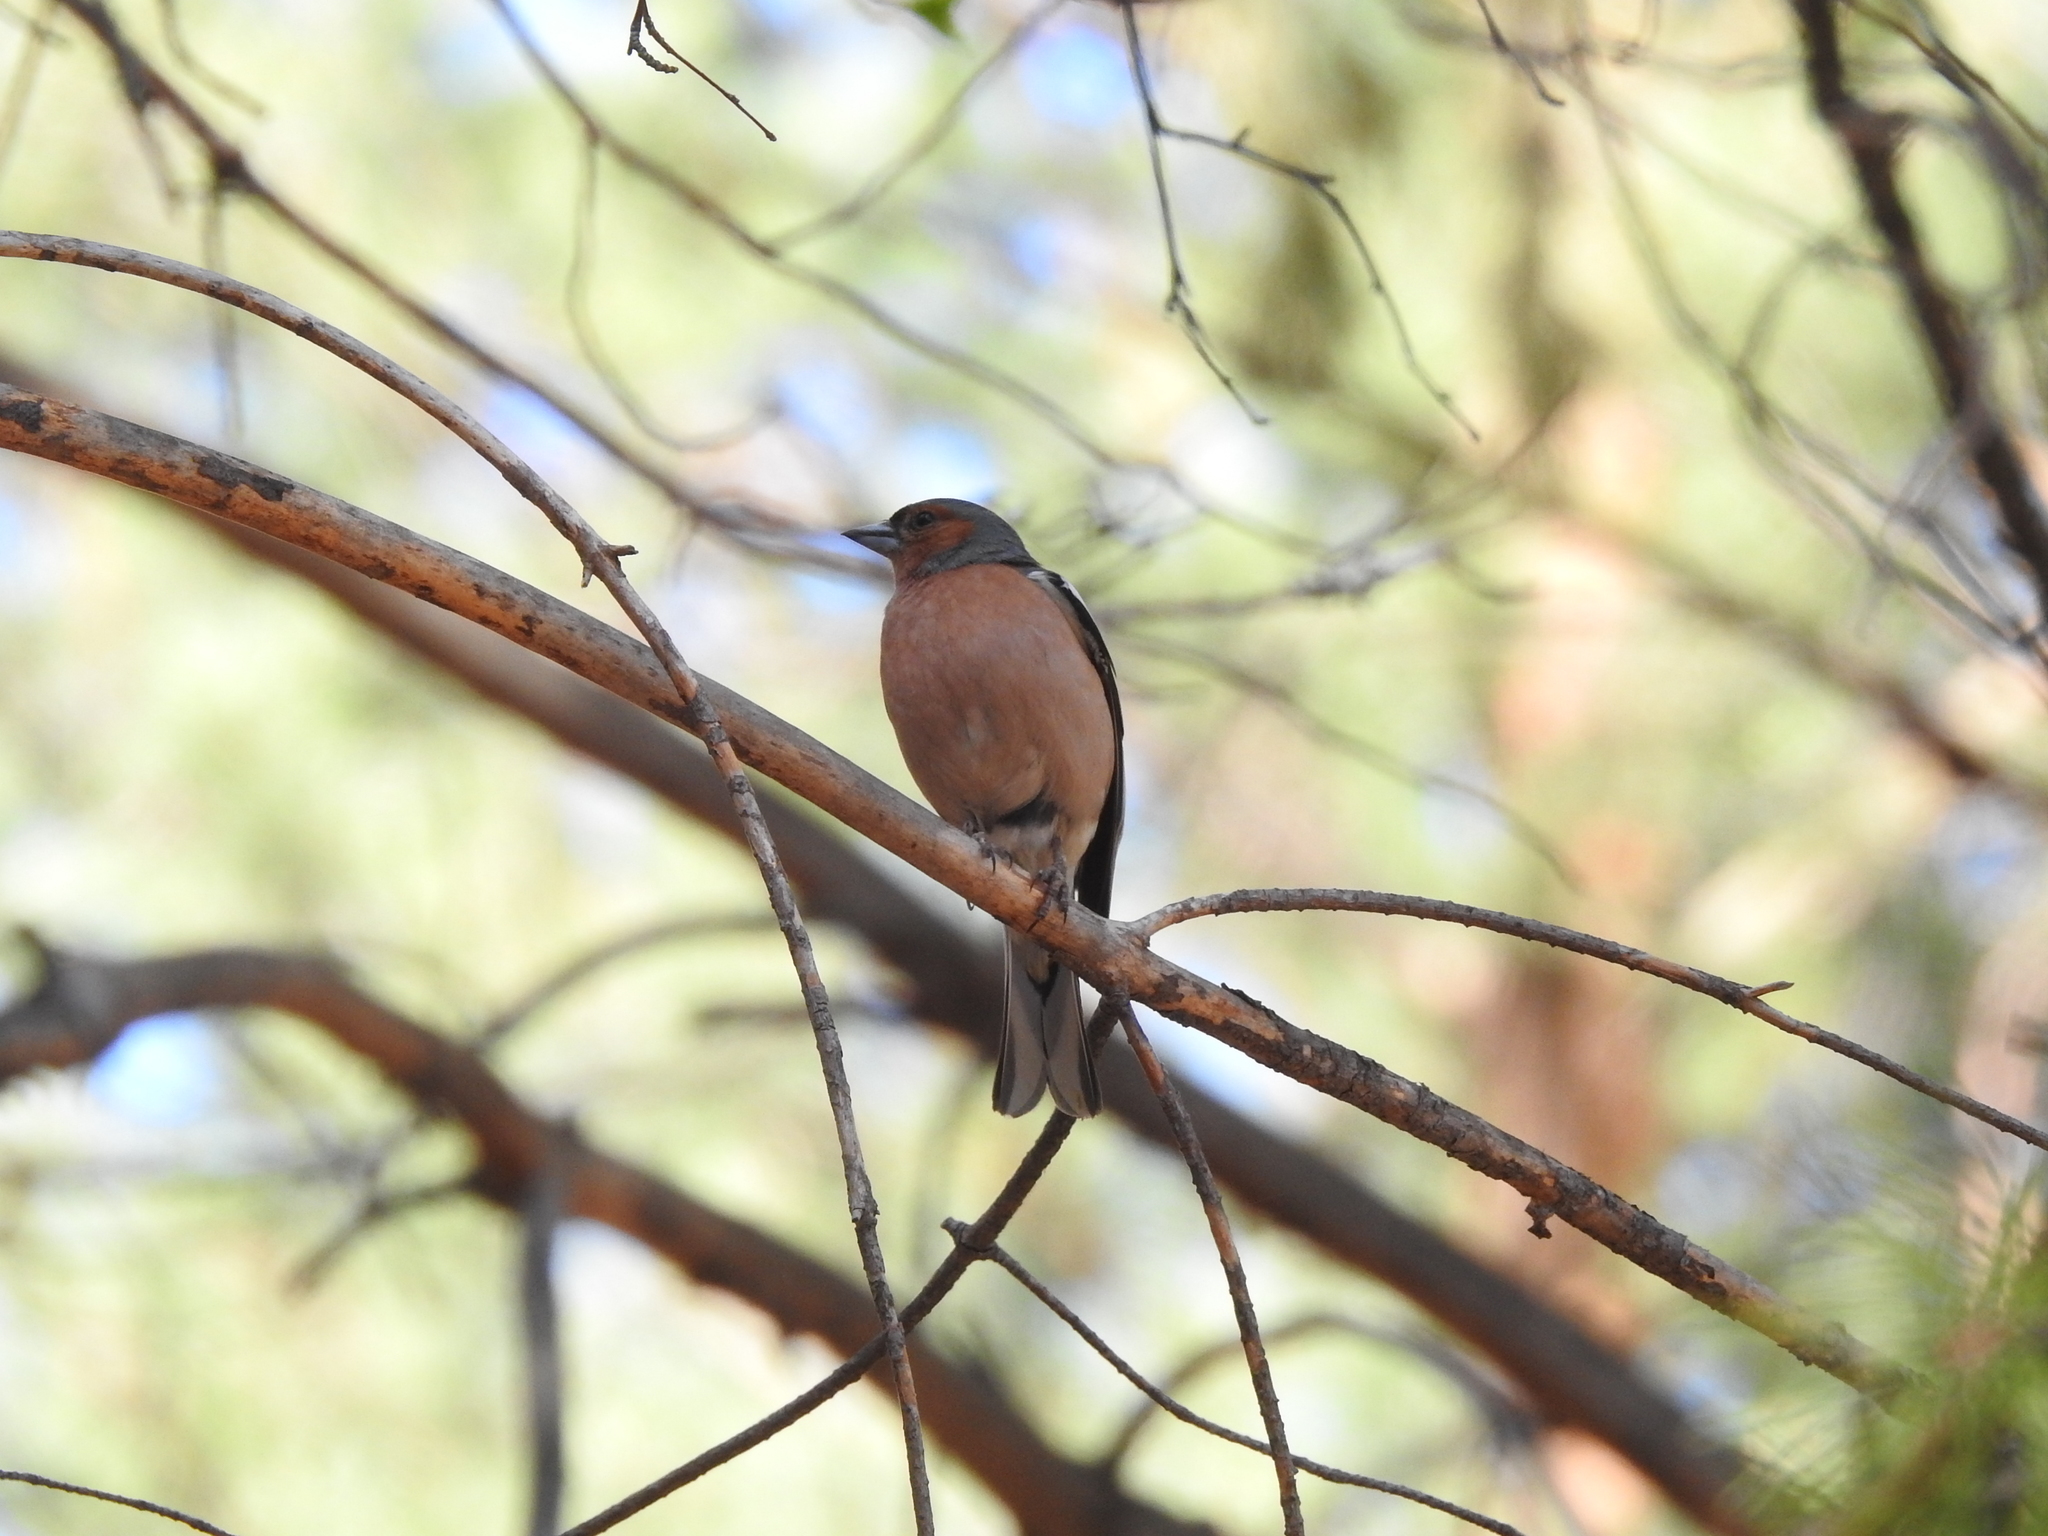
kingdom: Animalia
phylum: Chordata
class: Aves
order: Passeriformes
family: Fringillidae
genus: Fringilla
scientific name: Fringilla coelebs
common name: Common chaffinch
